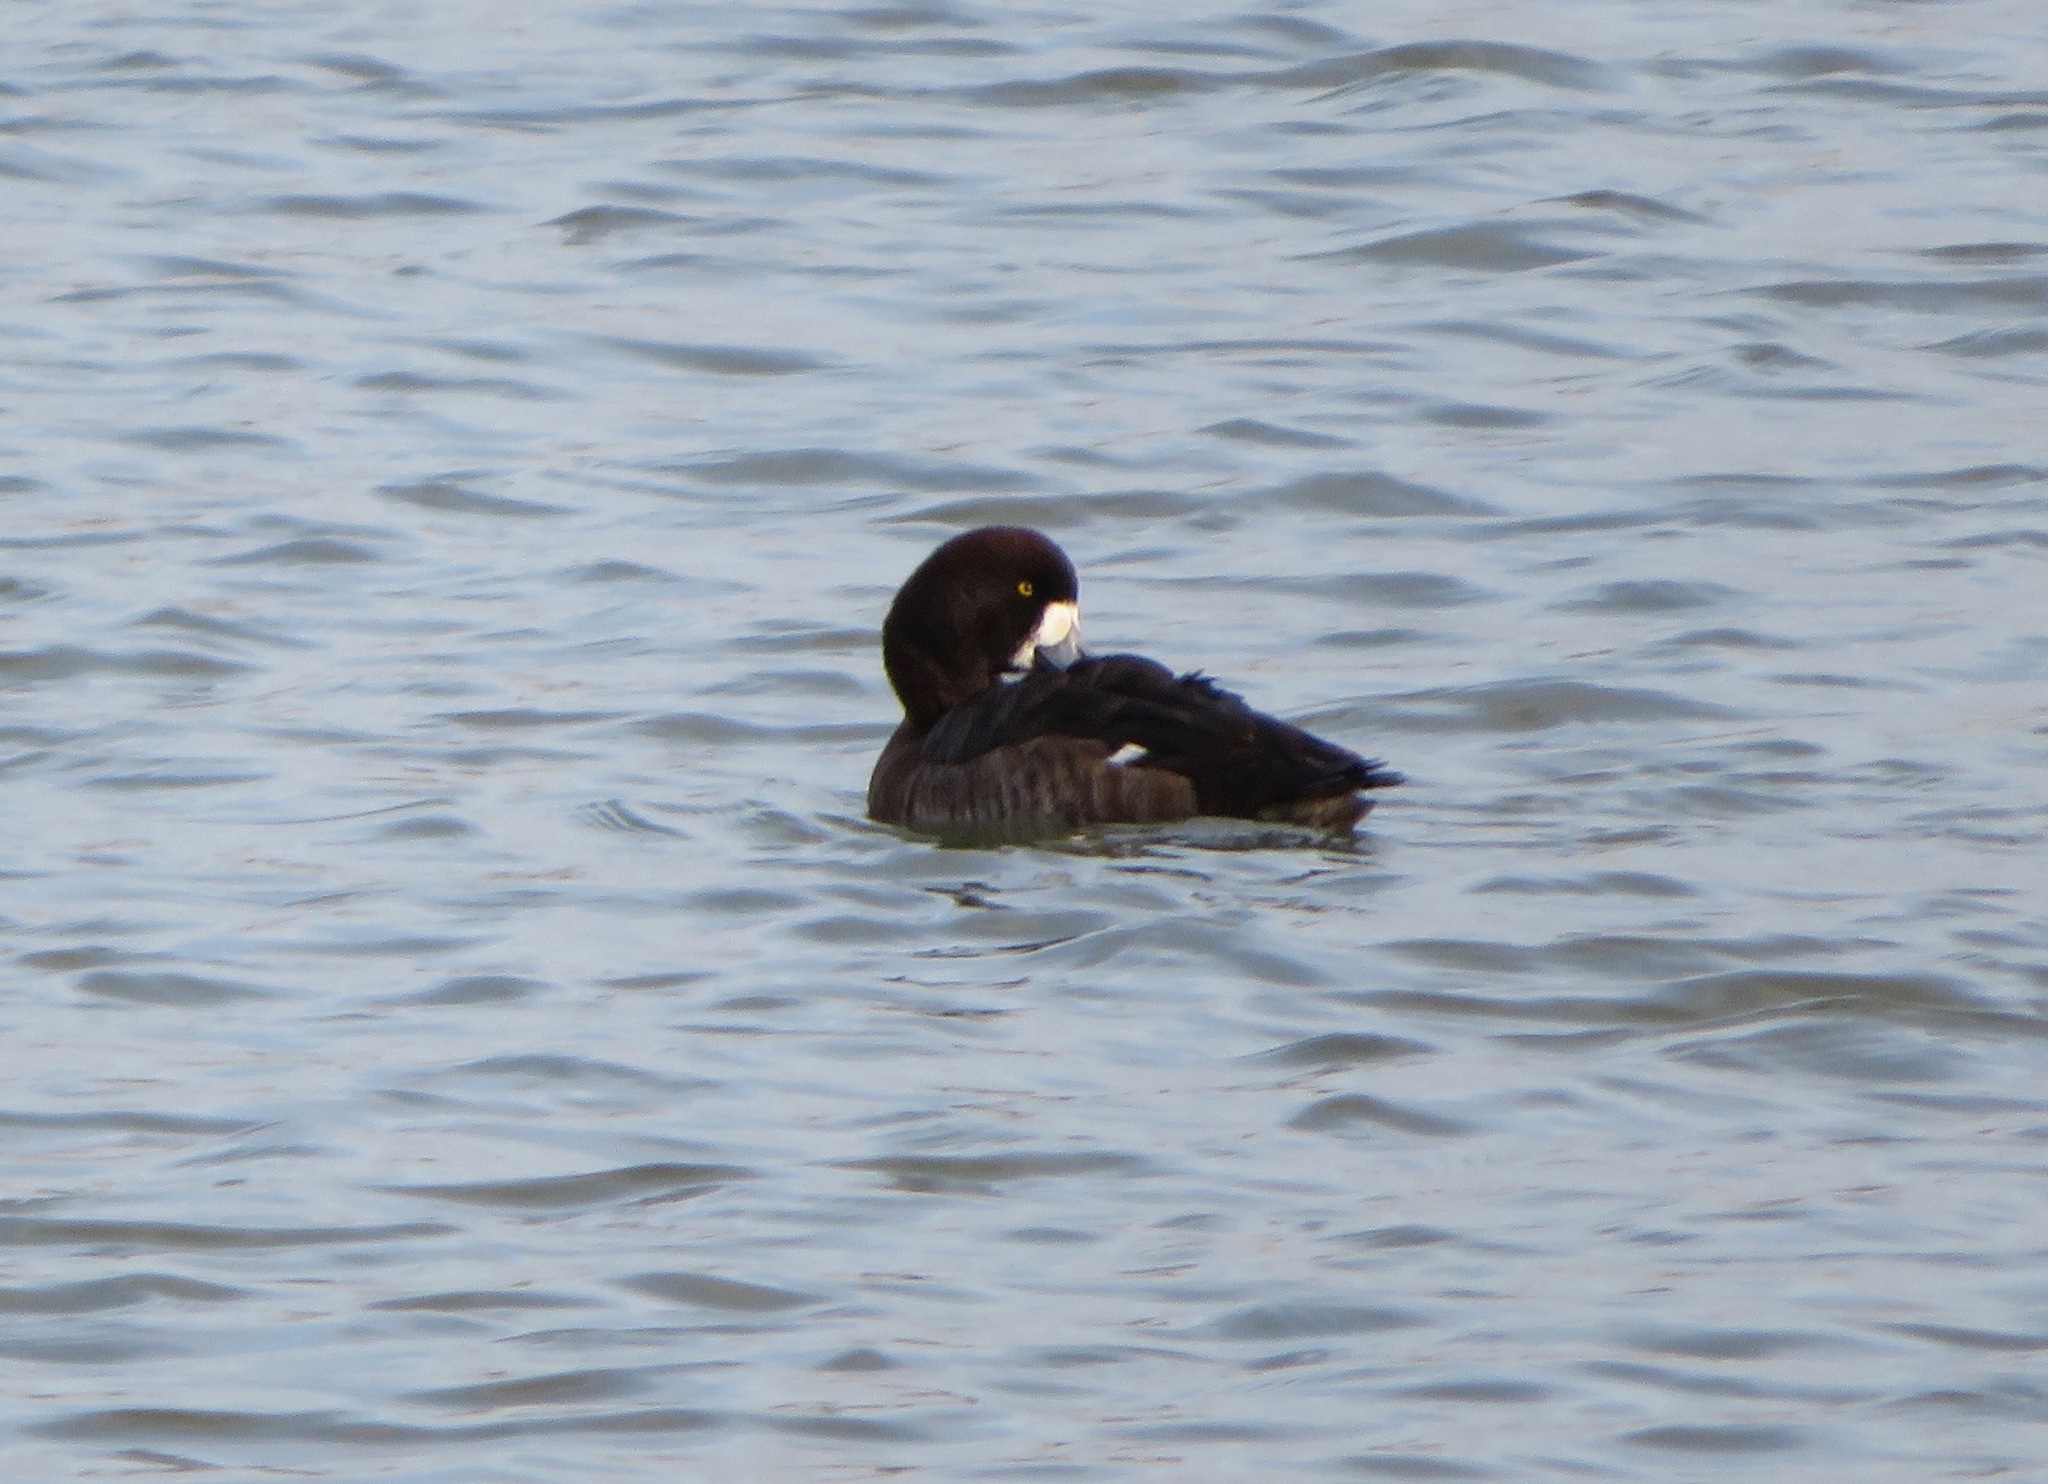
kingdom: Animalia
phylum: Chordata
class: Aves
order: Anseriformes
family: Anatidae
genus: Aythya
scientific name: Aythya marila
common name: Greater scaup
